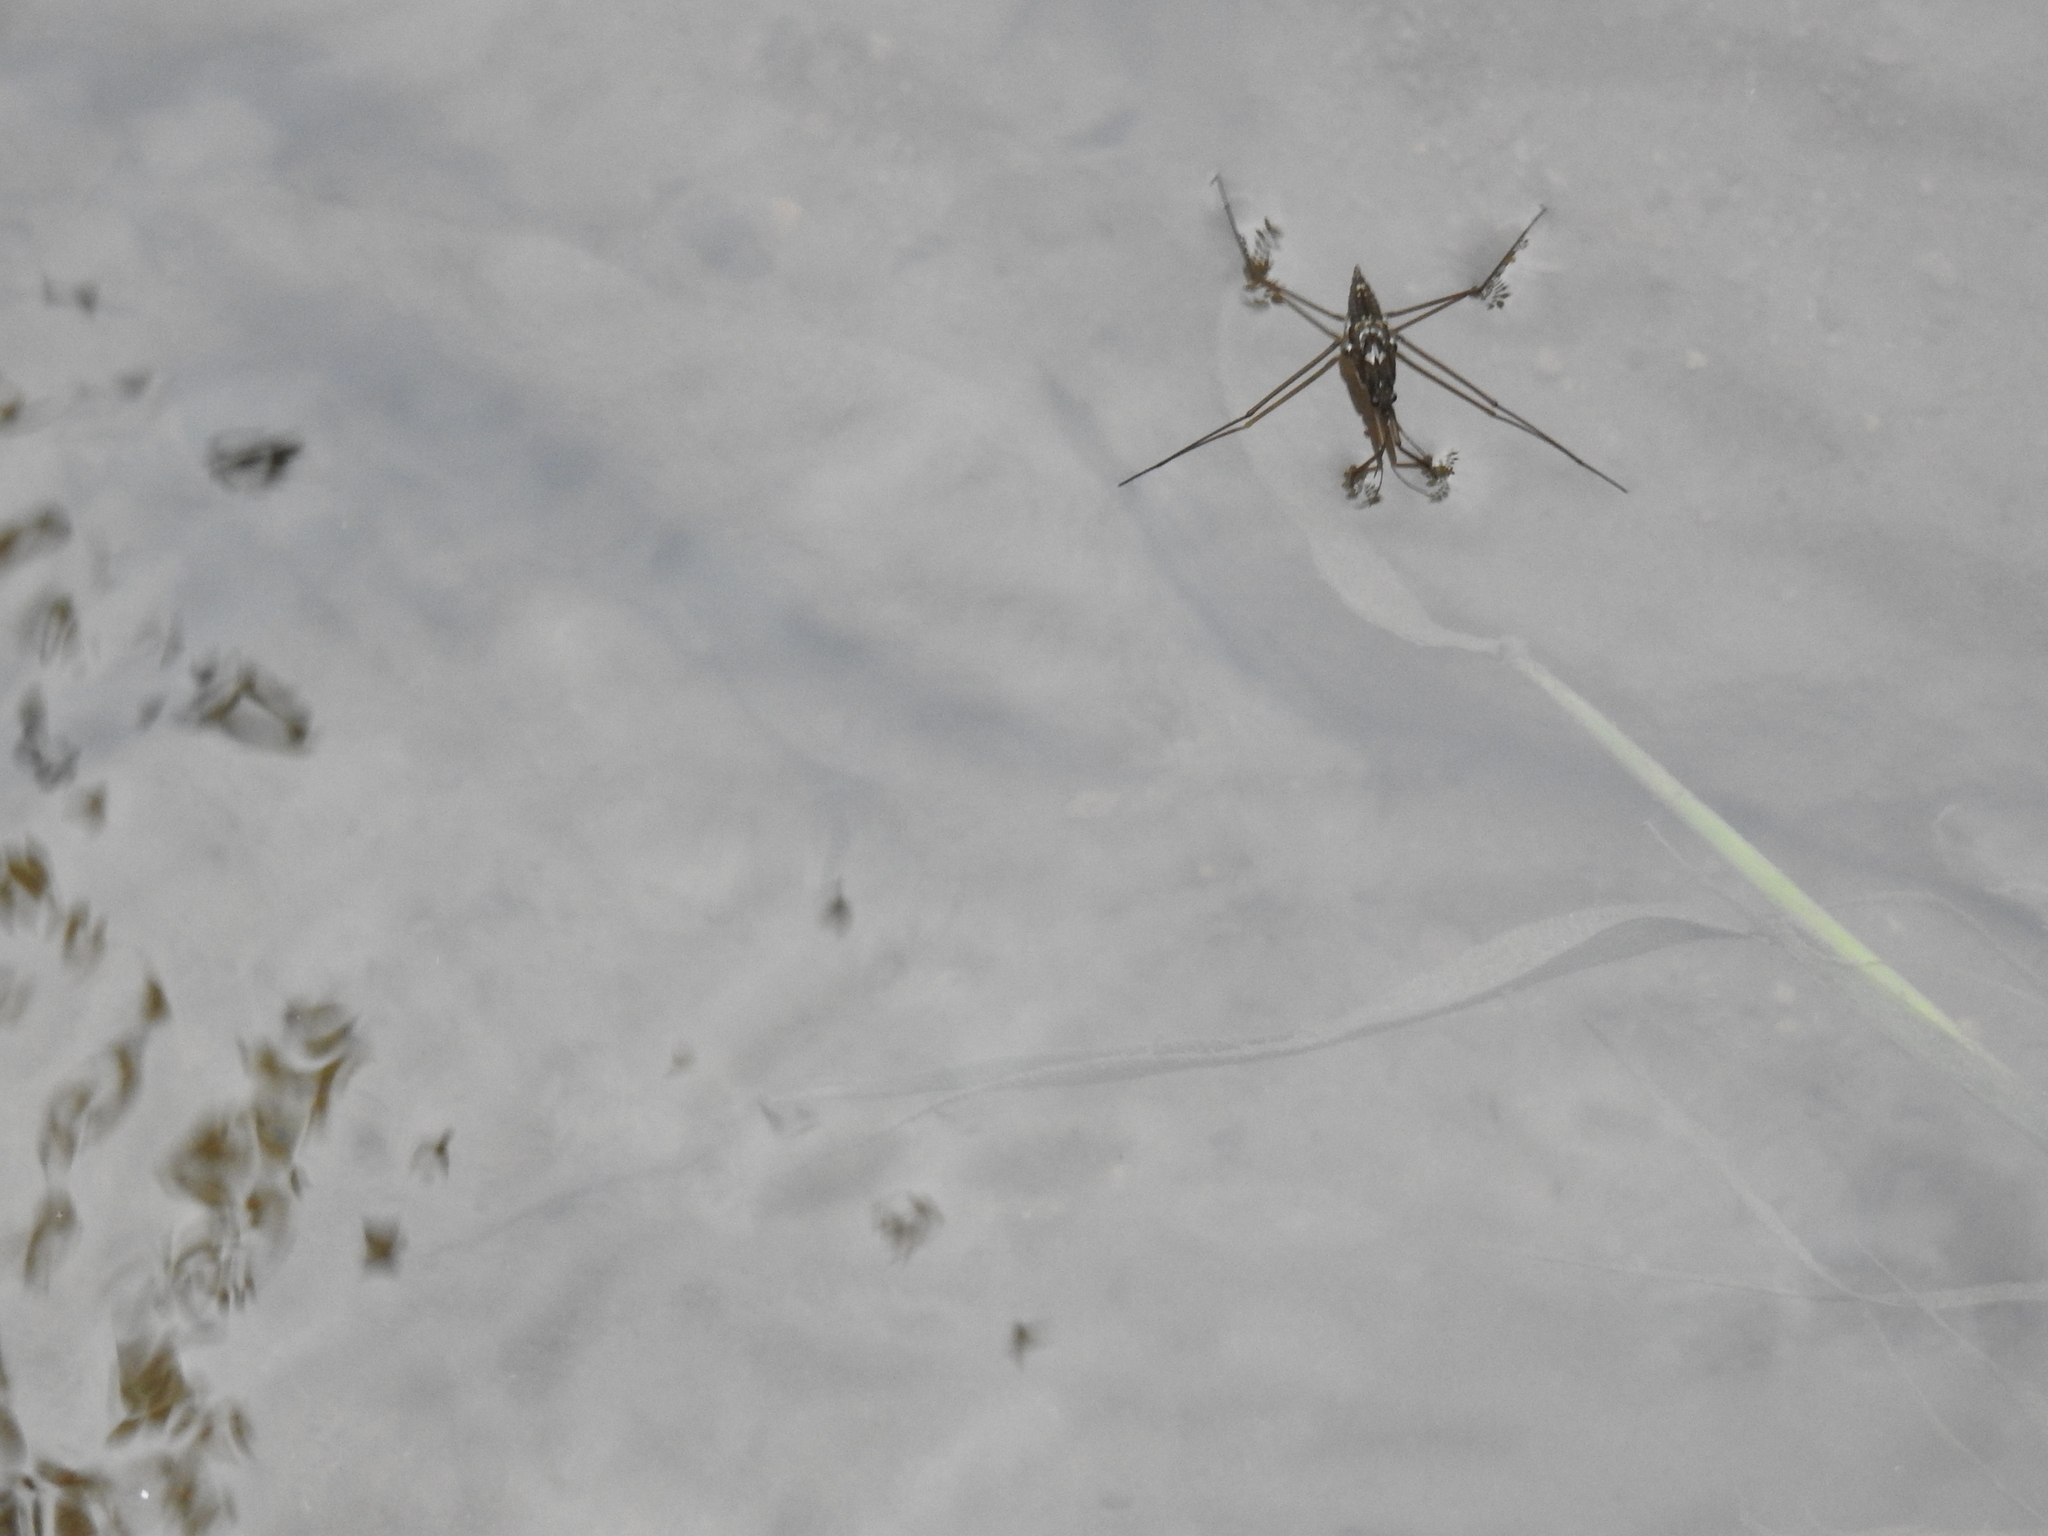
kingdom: Animalia
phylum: Arthropoda
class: Insecta
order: Hemiptera
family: Gerridae
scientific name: Gerridae
